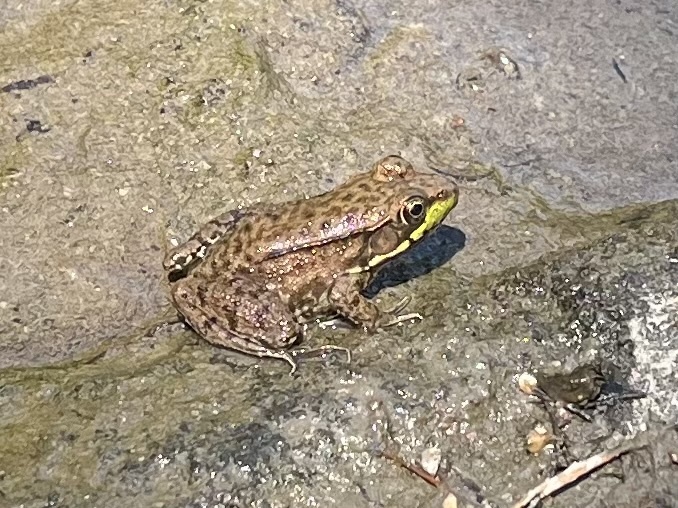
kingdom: Animalia
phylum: Chordata
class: Amphibia
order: Anura
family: Ranidae
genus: Lithobates
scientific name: Lithobates clamitans
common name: Green frog
